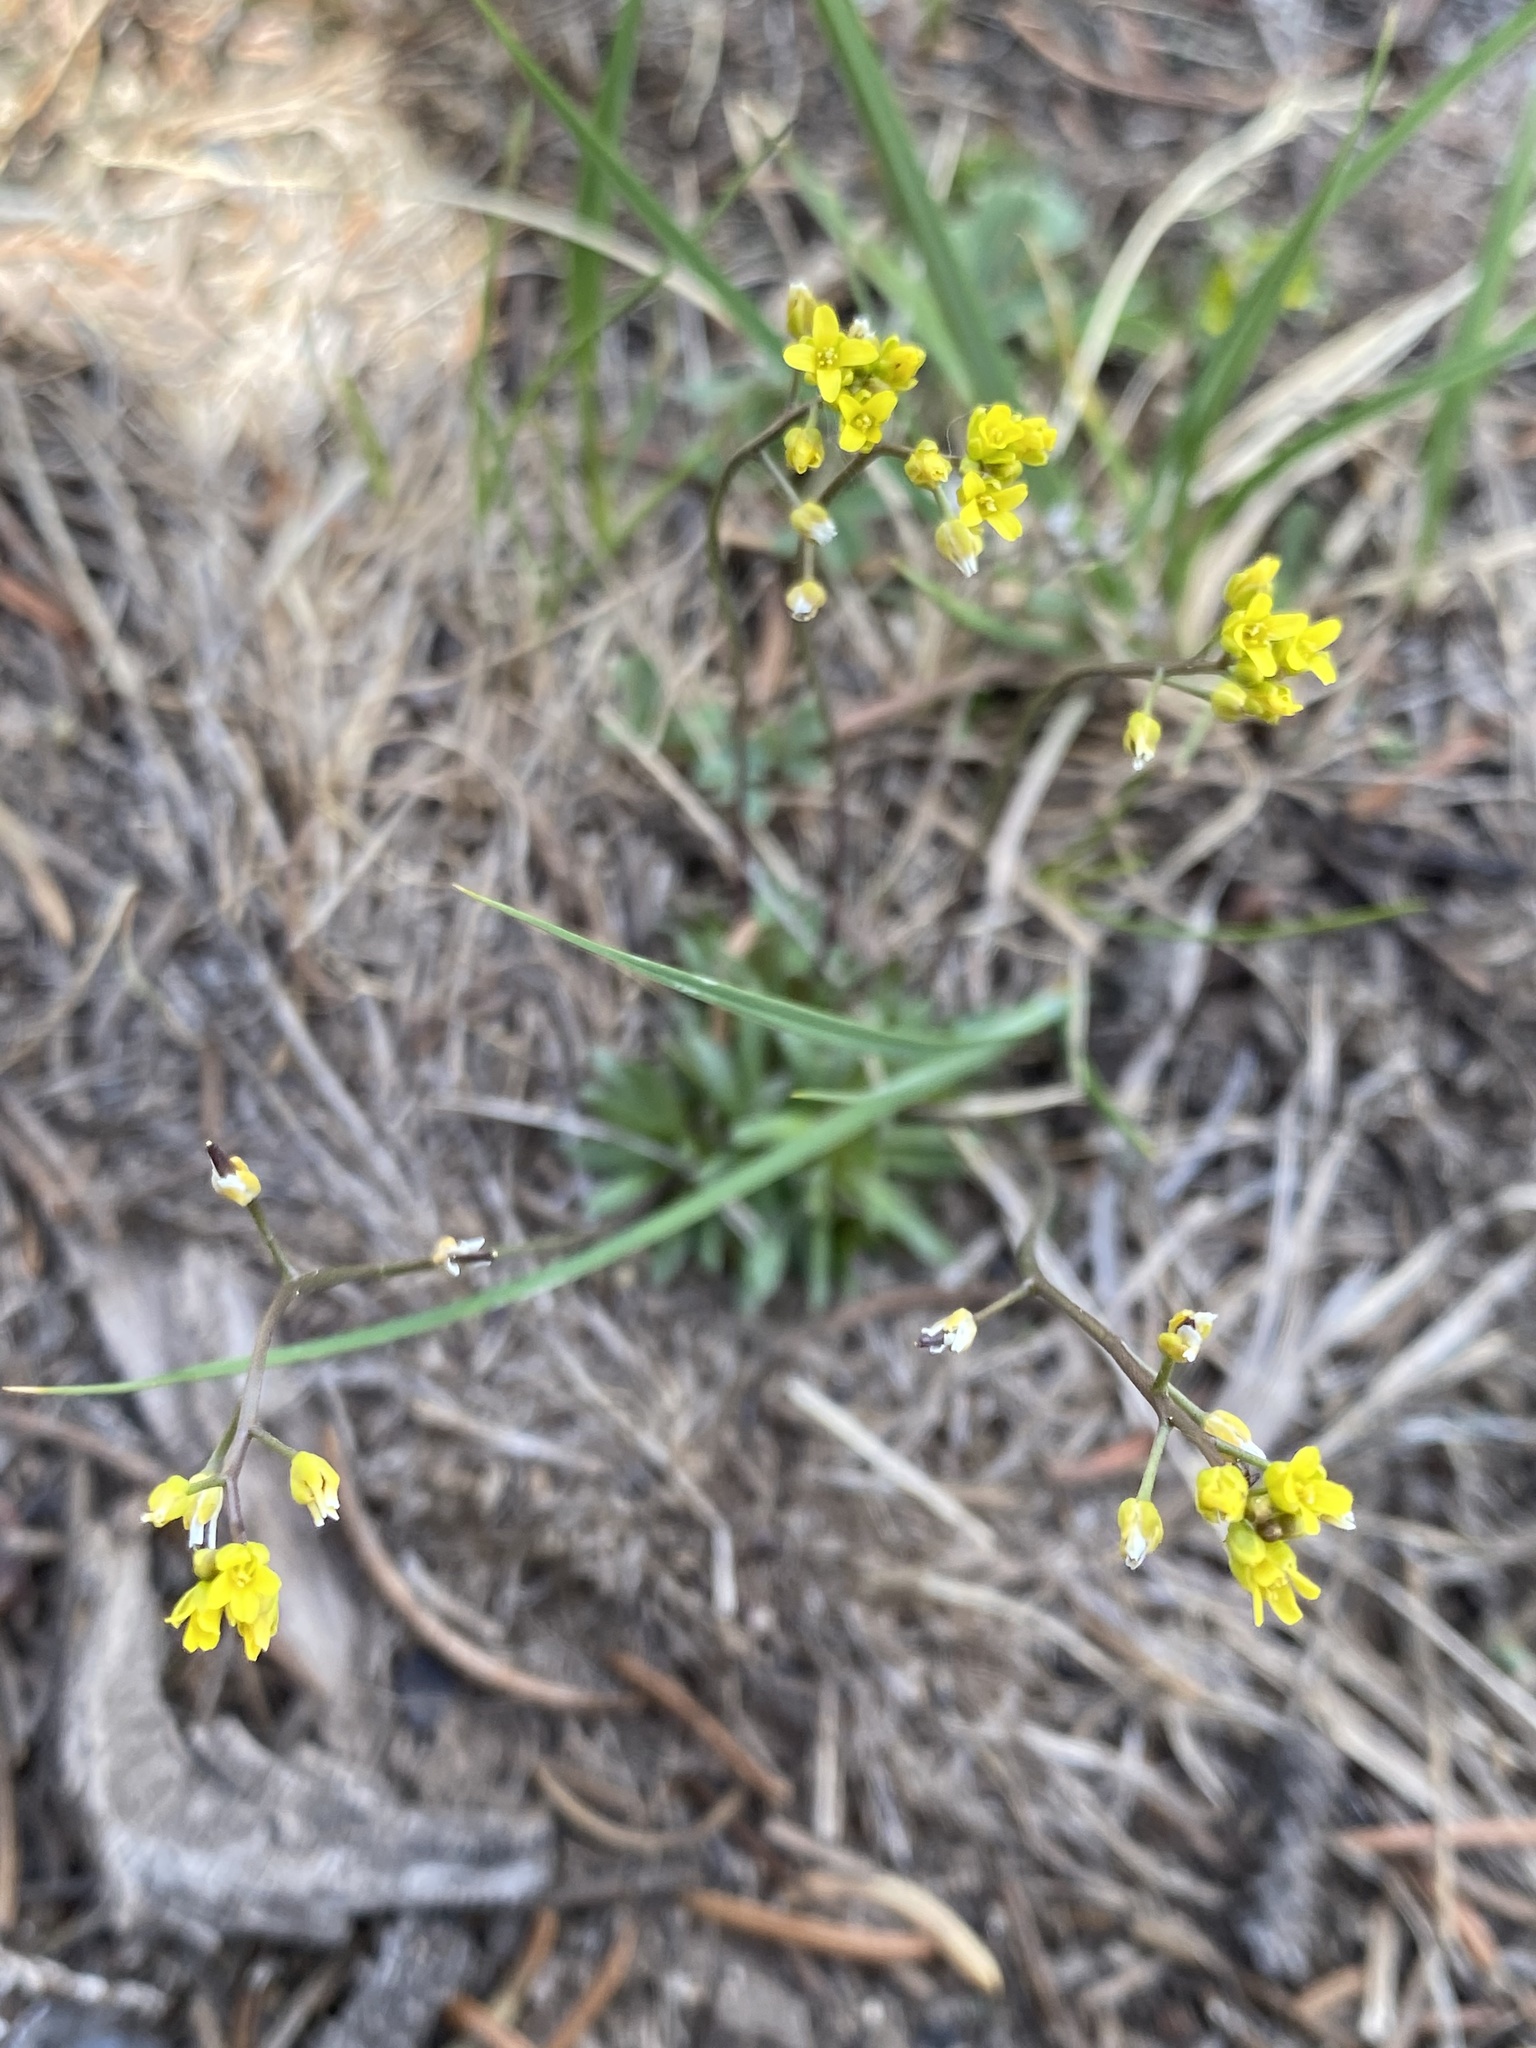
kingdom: Plantae
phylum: Tracheophyta
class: Magnoliopsida
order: Brassicales
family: Brassicaceae
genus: Draba
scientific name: Draba crassifolia
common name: Rocky mountain draba
